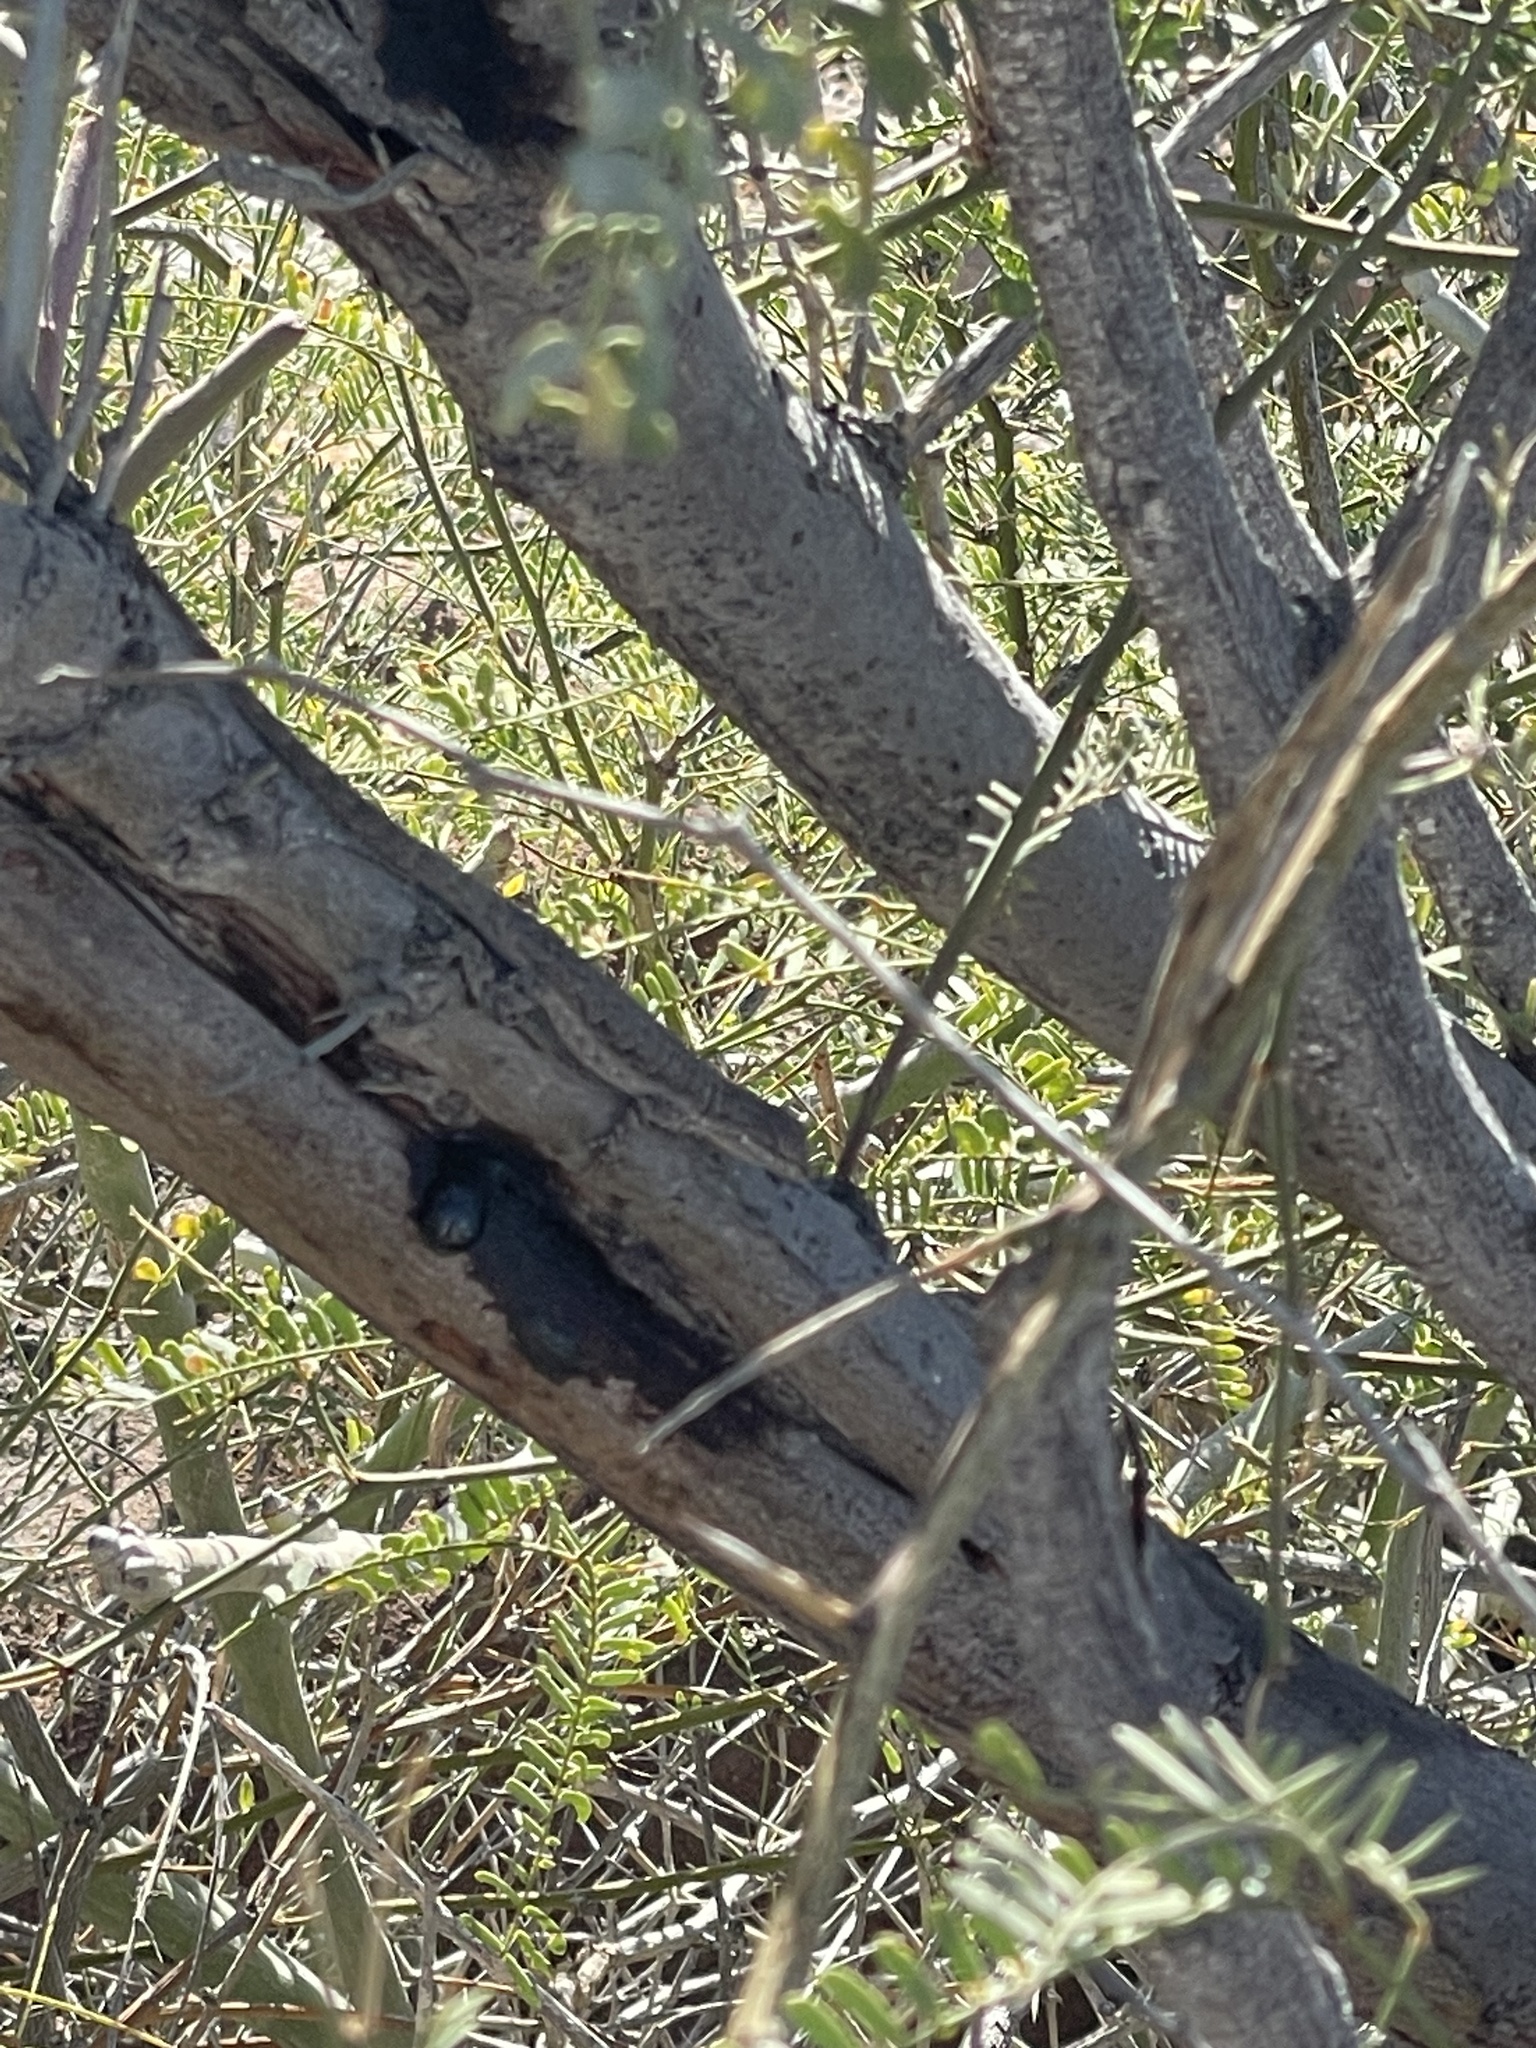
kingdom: Animalia
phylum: Chordata
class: Squamata
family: Phrynosomatidae
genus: Urosaurus
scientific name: Urosaurus nigricauda
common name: Baja california brush lizard
